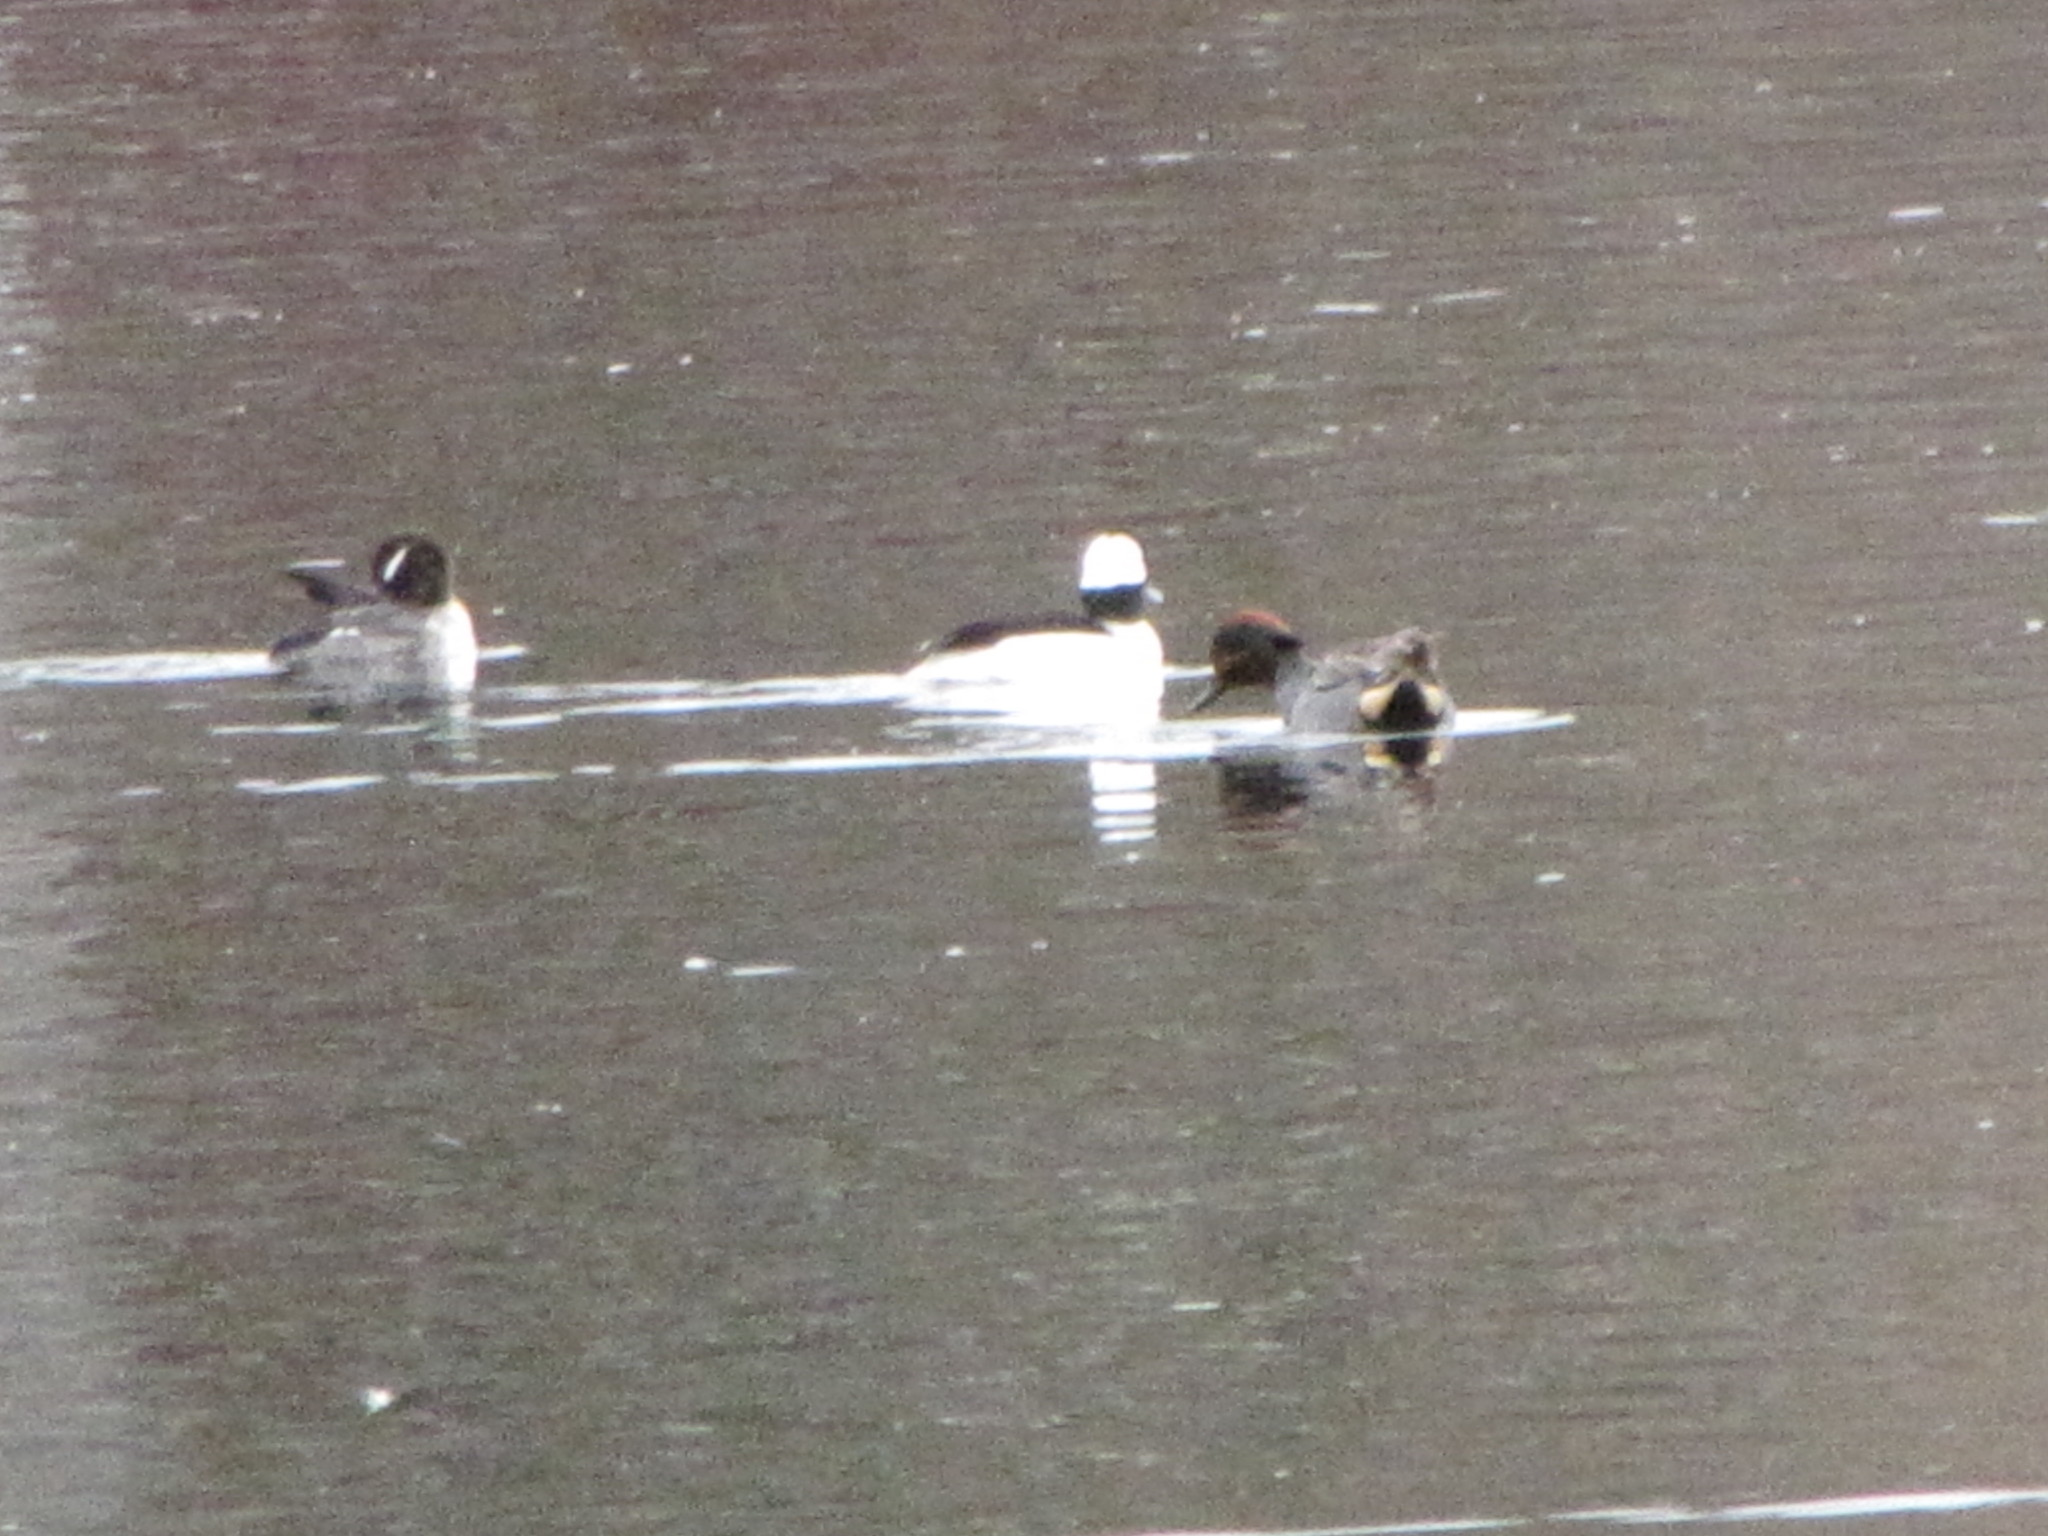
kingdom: Animalia
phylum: Chordata
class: Aves
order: Anseriformes
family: Anatidae
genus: Anas
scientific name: Anas carolinensis
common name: Green-winged teal
